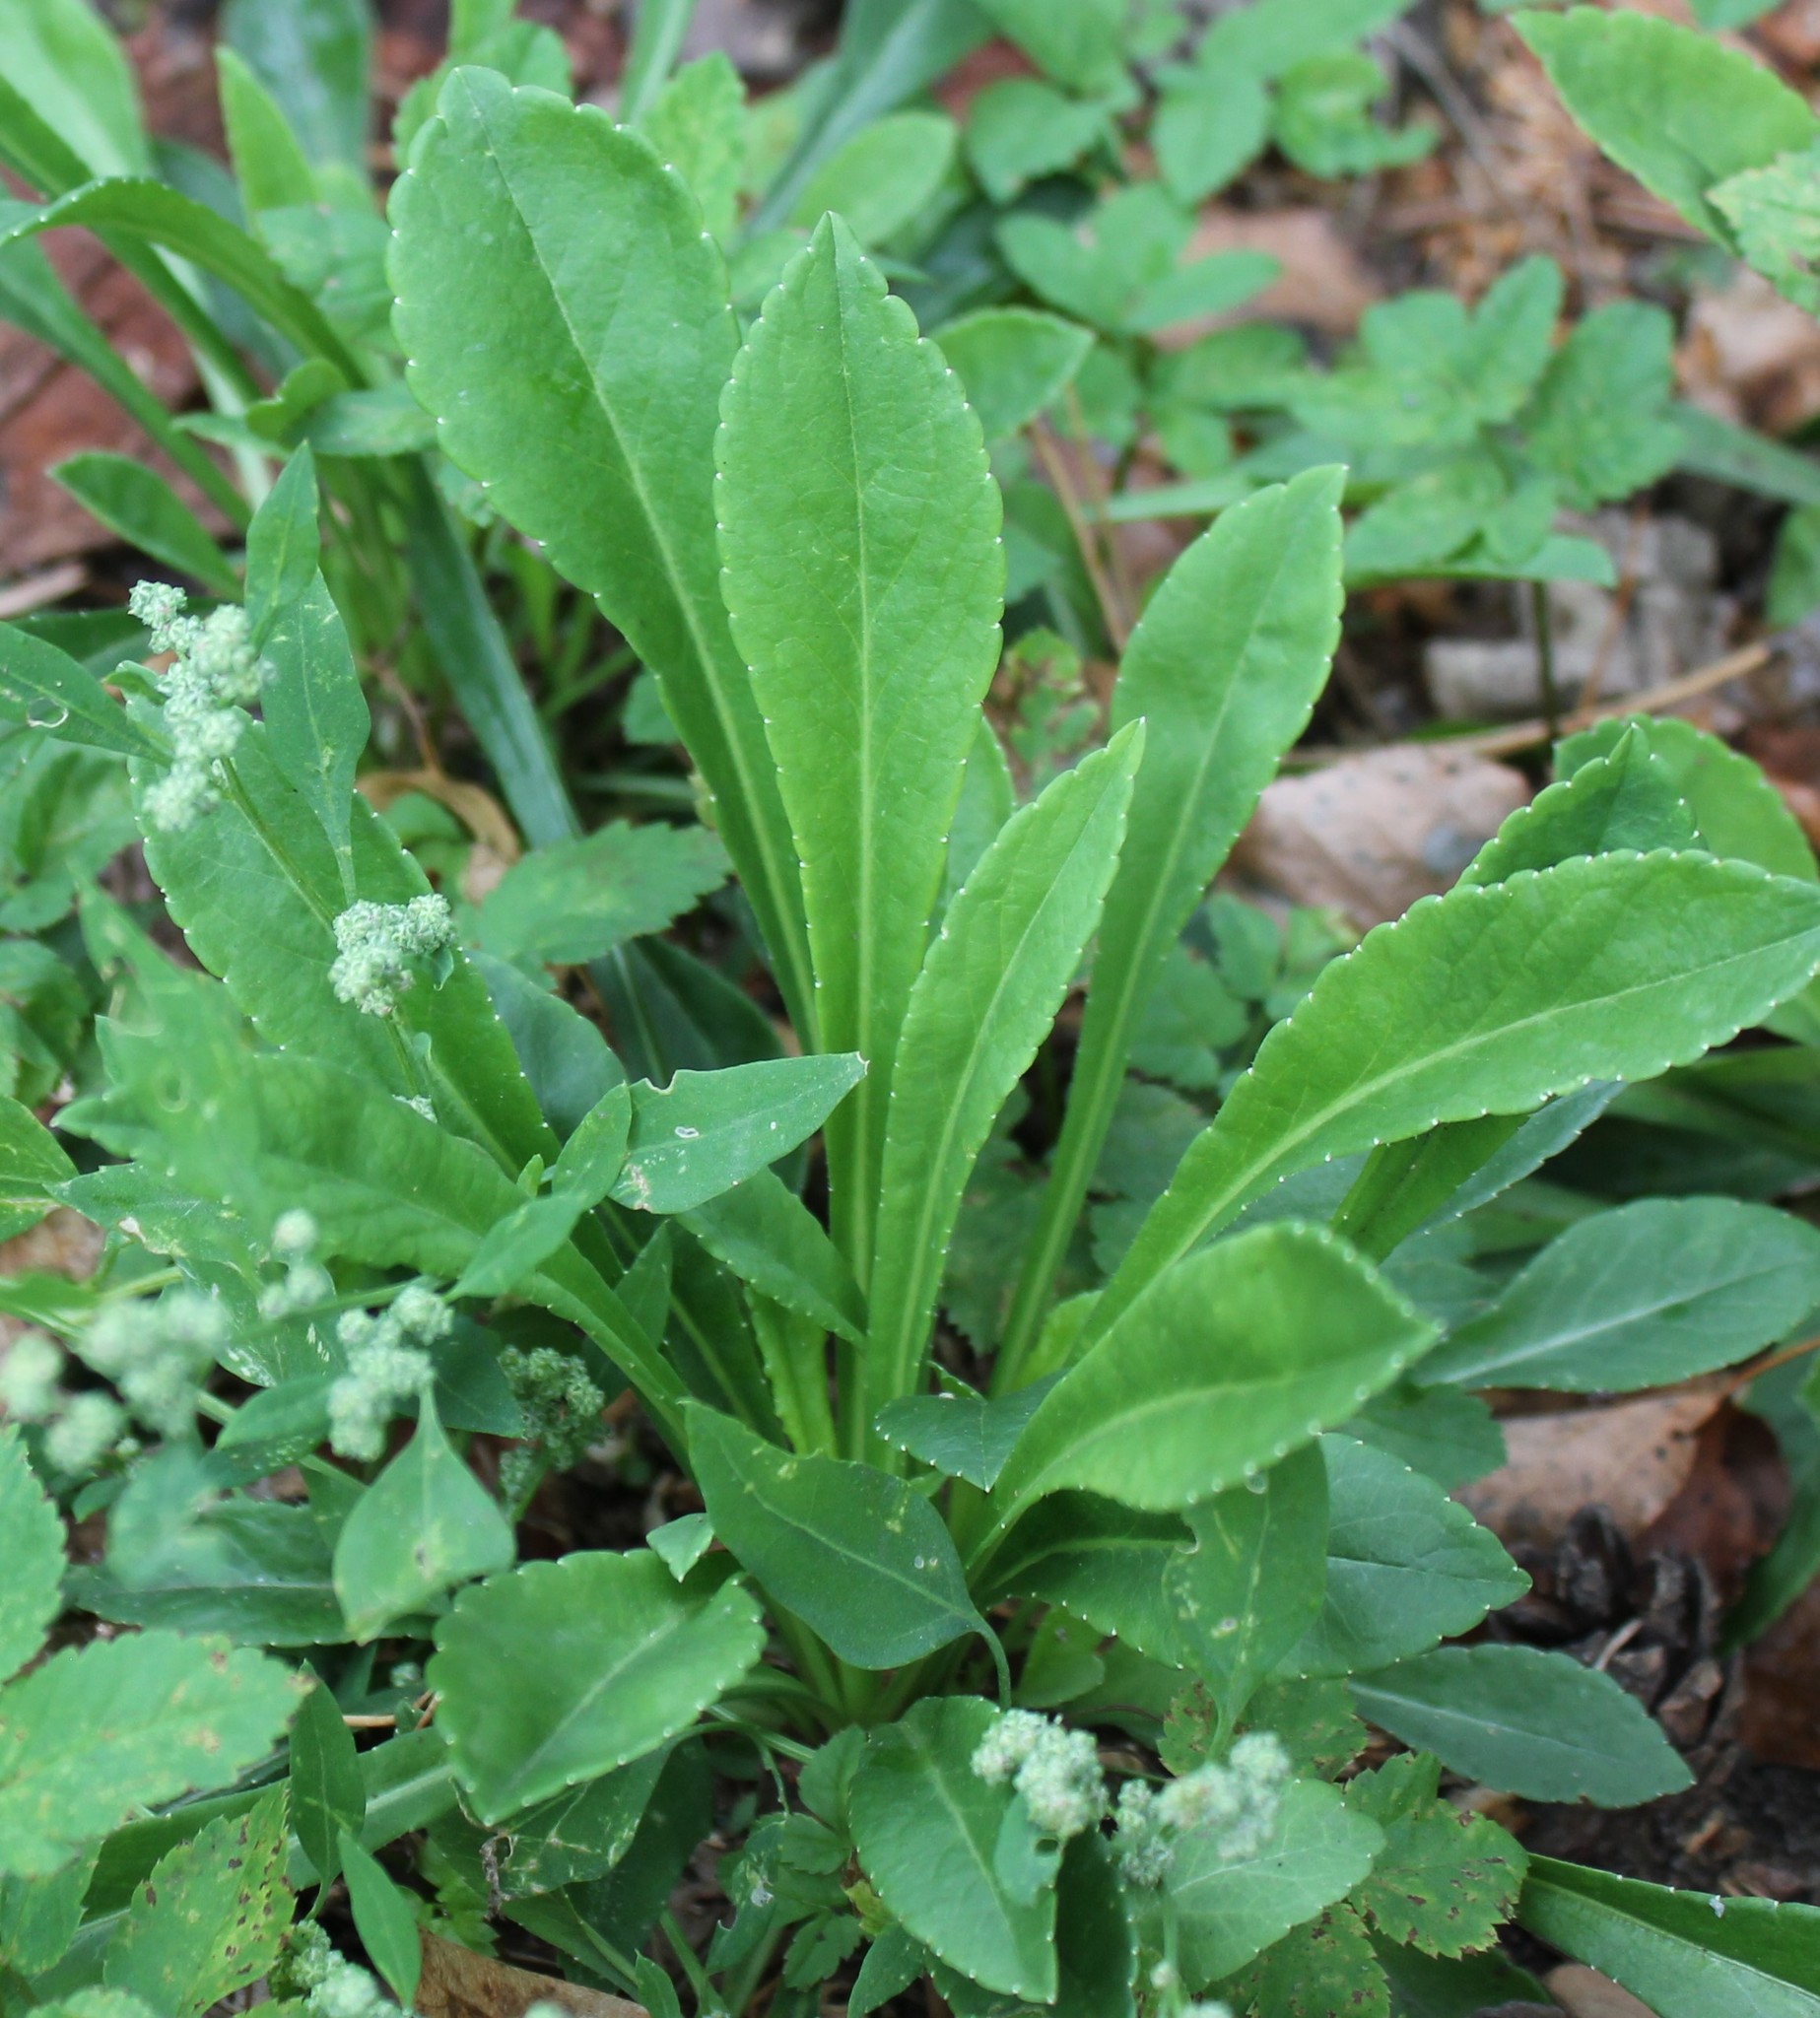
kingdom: Plantae
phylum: Tracheophyta
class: Magnoliopsida
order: Asterales
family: Campanulaceae
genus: Campanula
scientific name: Campanula persicifolia
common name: Peach-leaved bellflower
